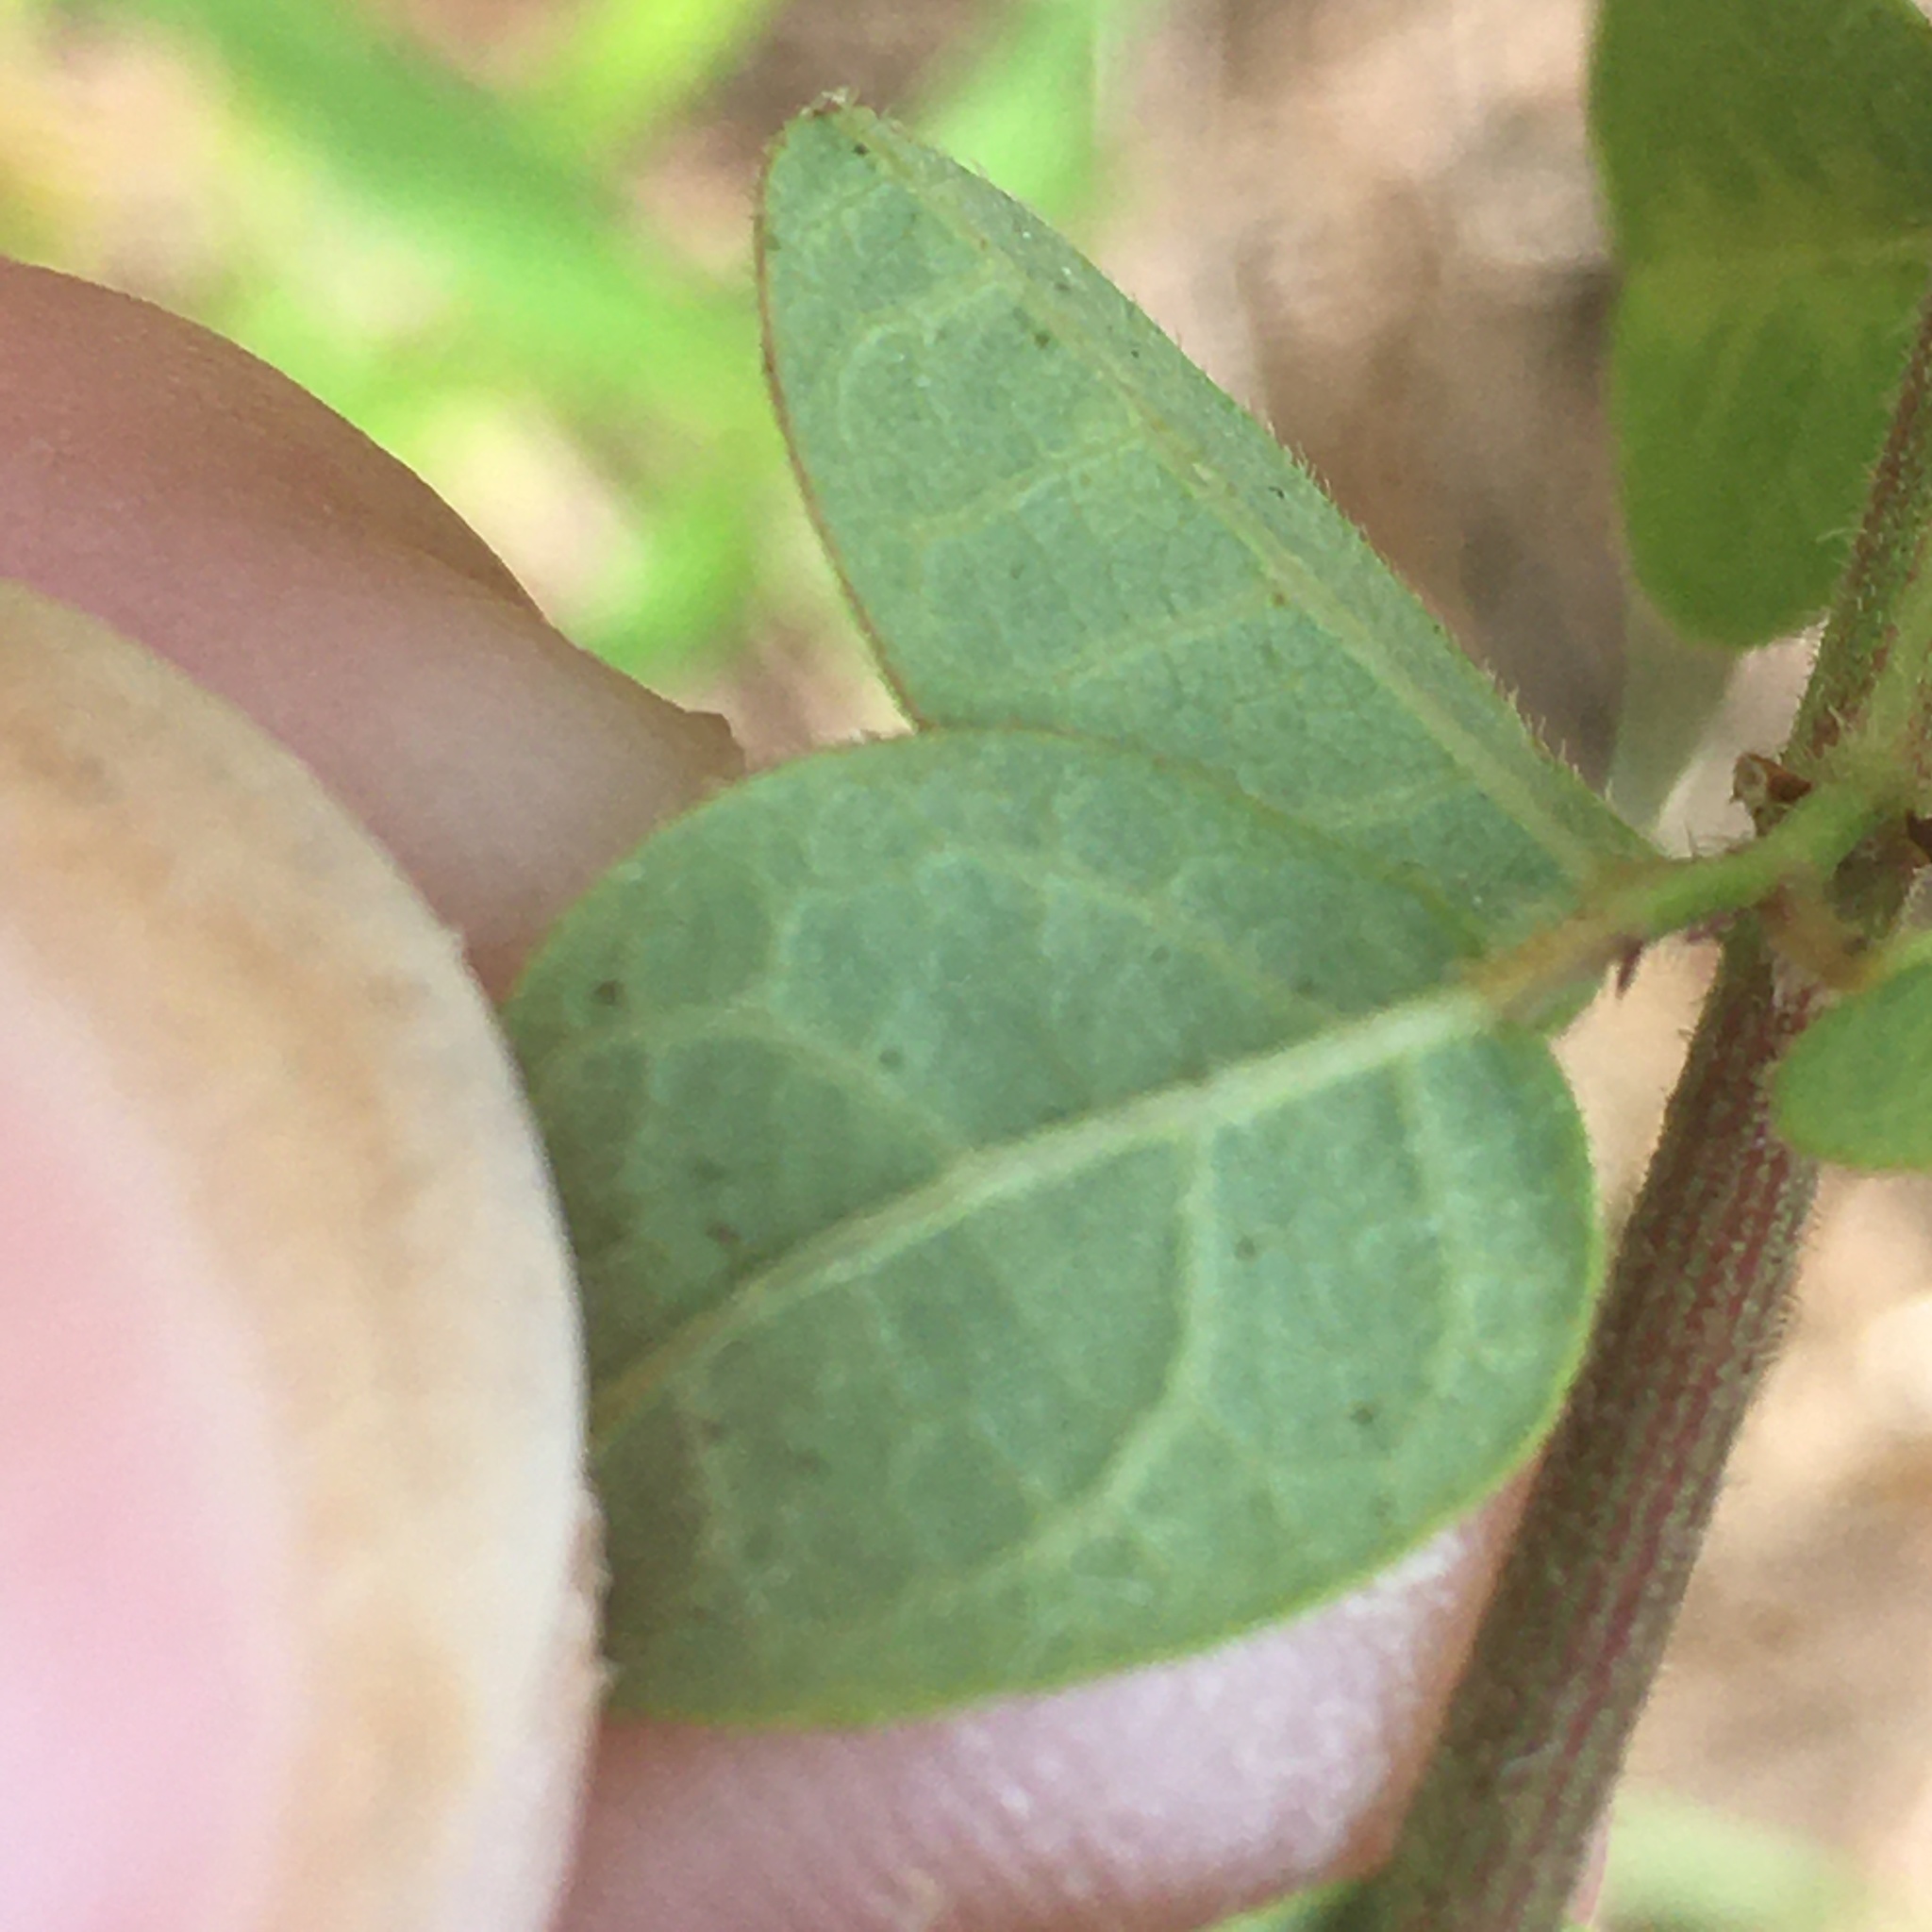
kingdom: Plantae
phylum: Tracheophyta
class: Magnoliopsida
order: Fabales
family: Fabaceae
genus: Desmodium
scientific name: Desmodium ciliare
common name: Hairy small-leaf ticktrefoil
